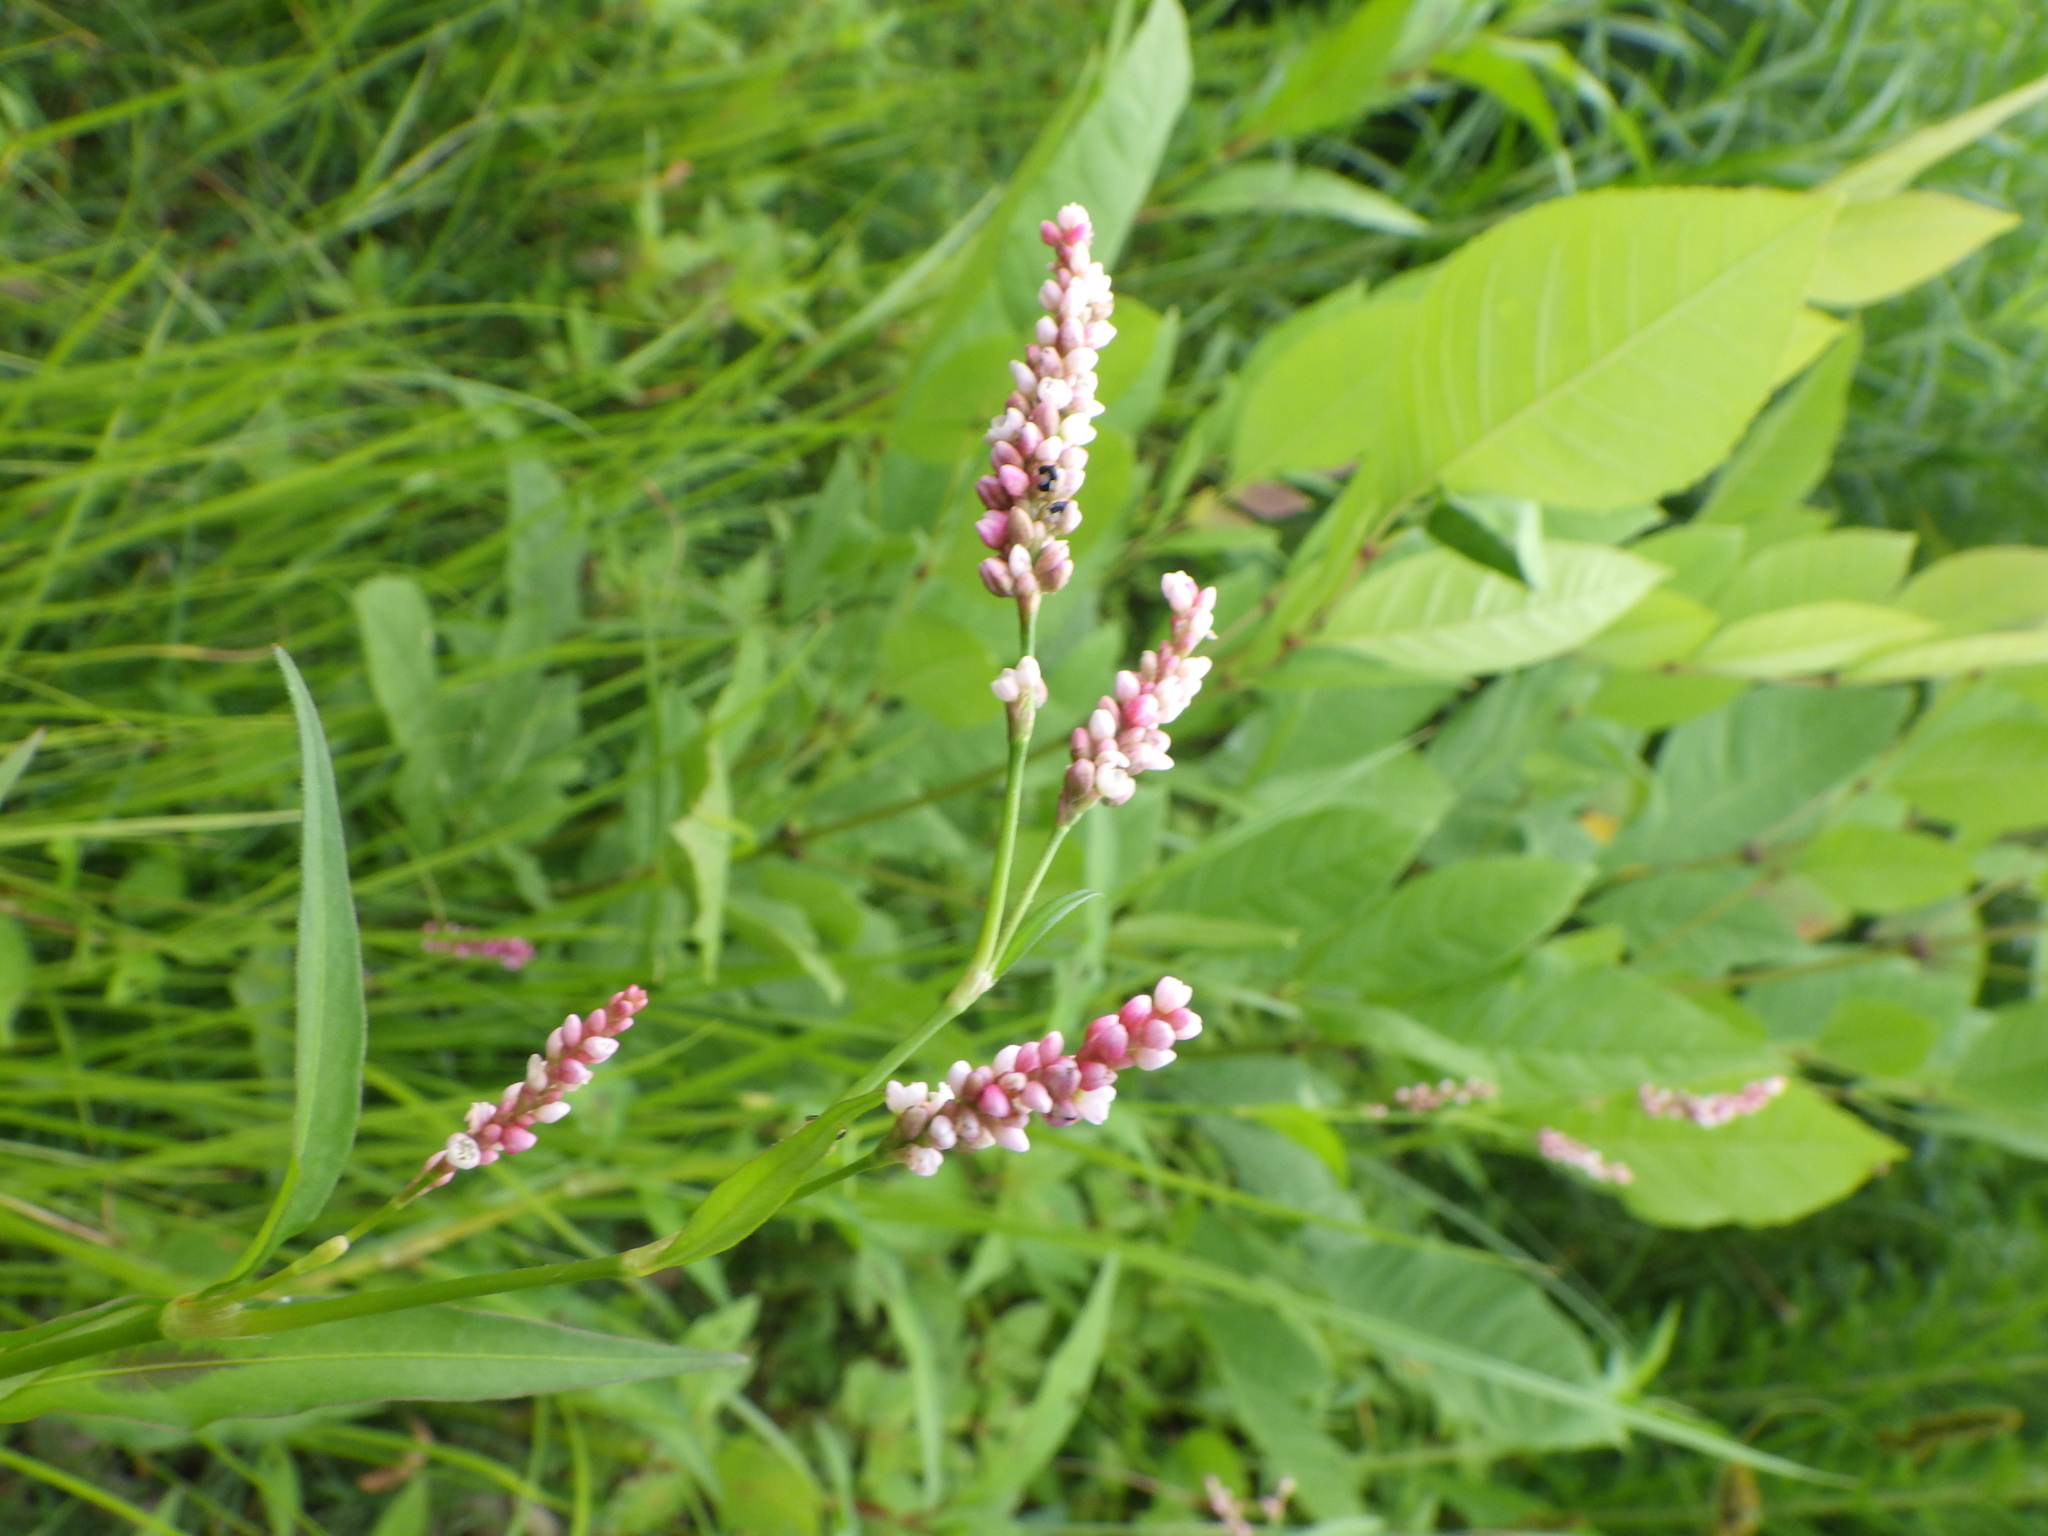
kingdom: Plantae
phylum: Tracheophyta
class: Magnoliopsida
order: Caryophyllales
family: Polygonaceae
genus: Persicaria
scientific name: Persicaria maculosa
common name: Redshank
